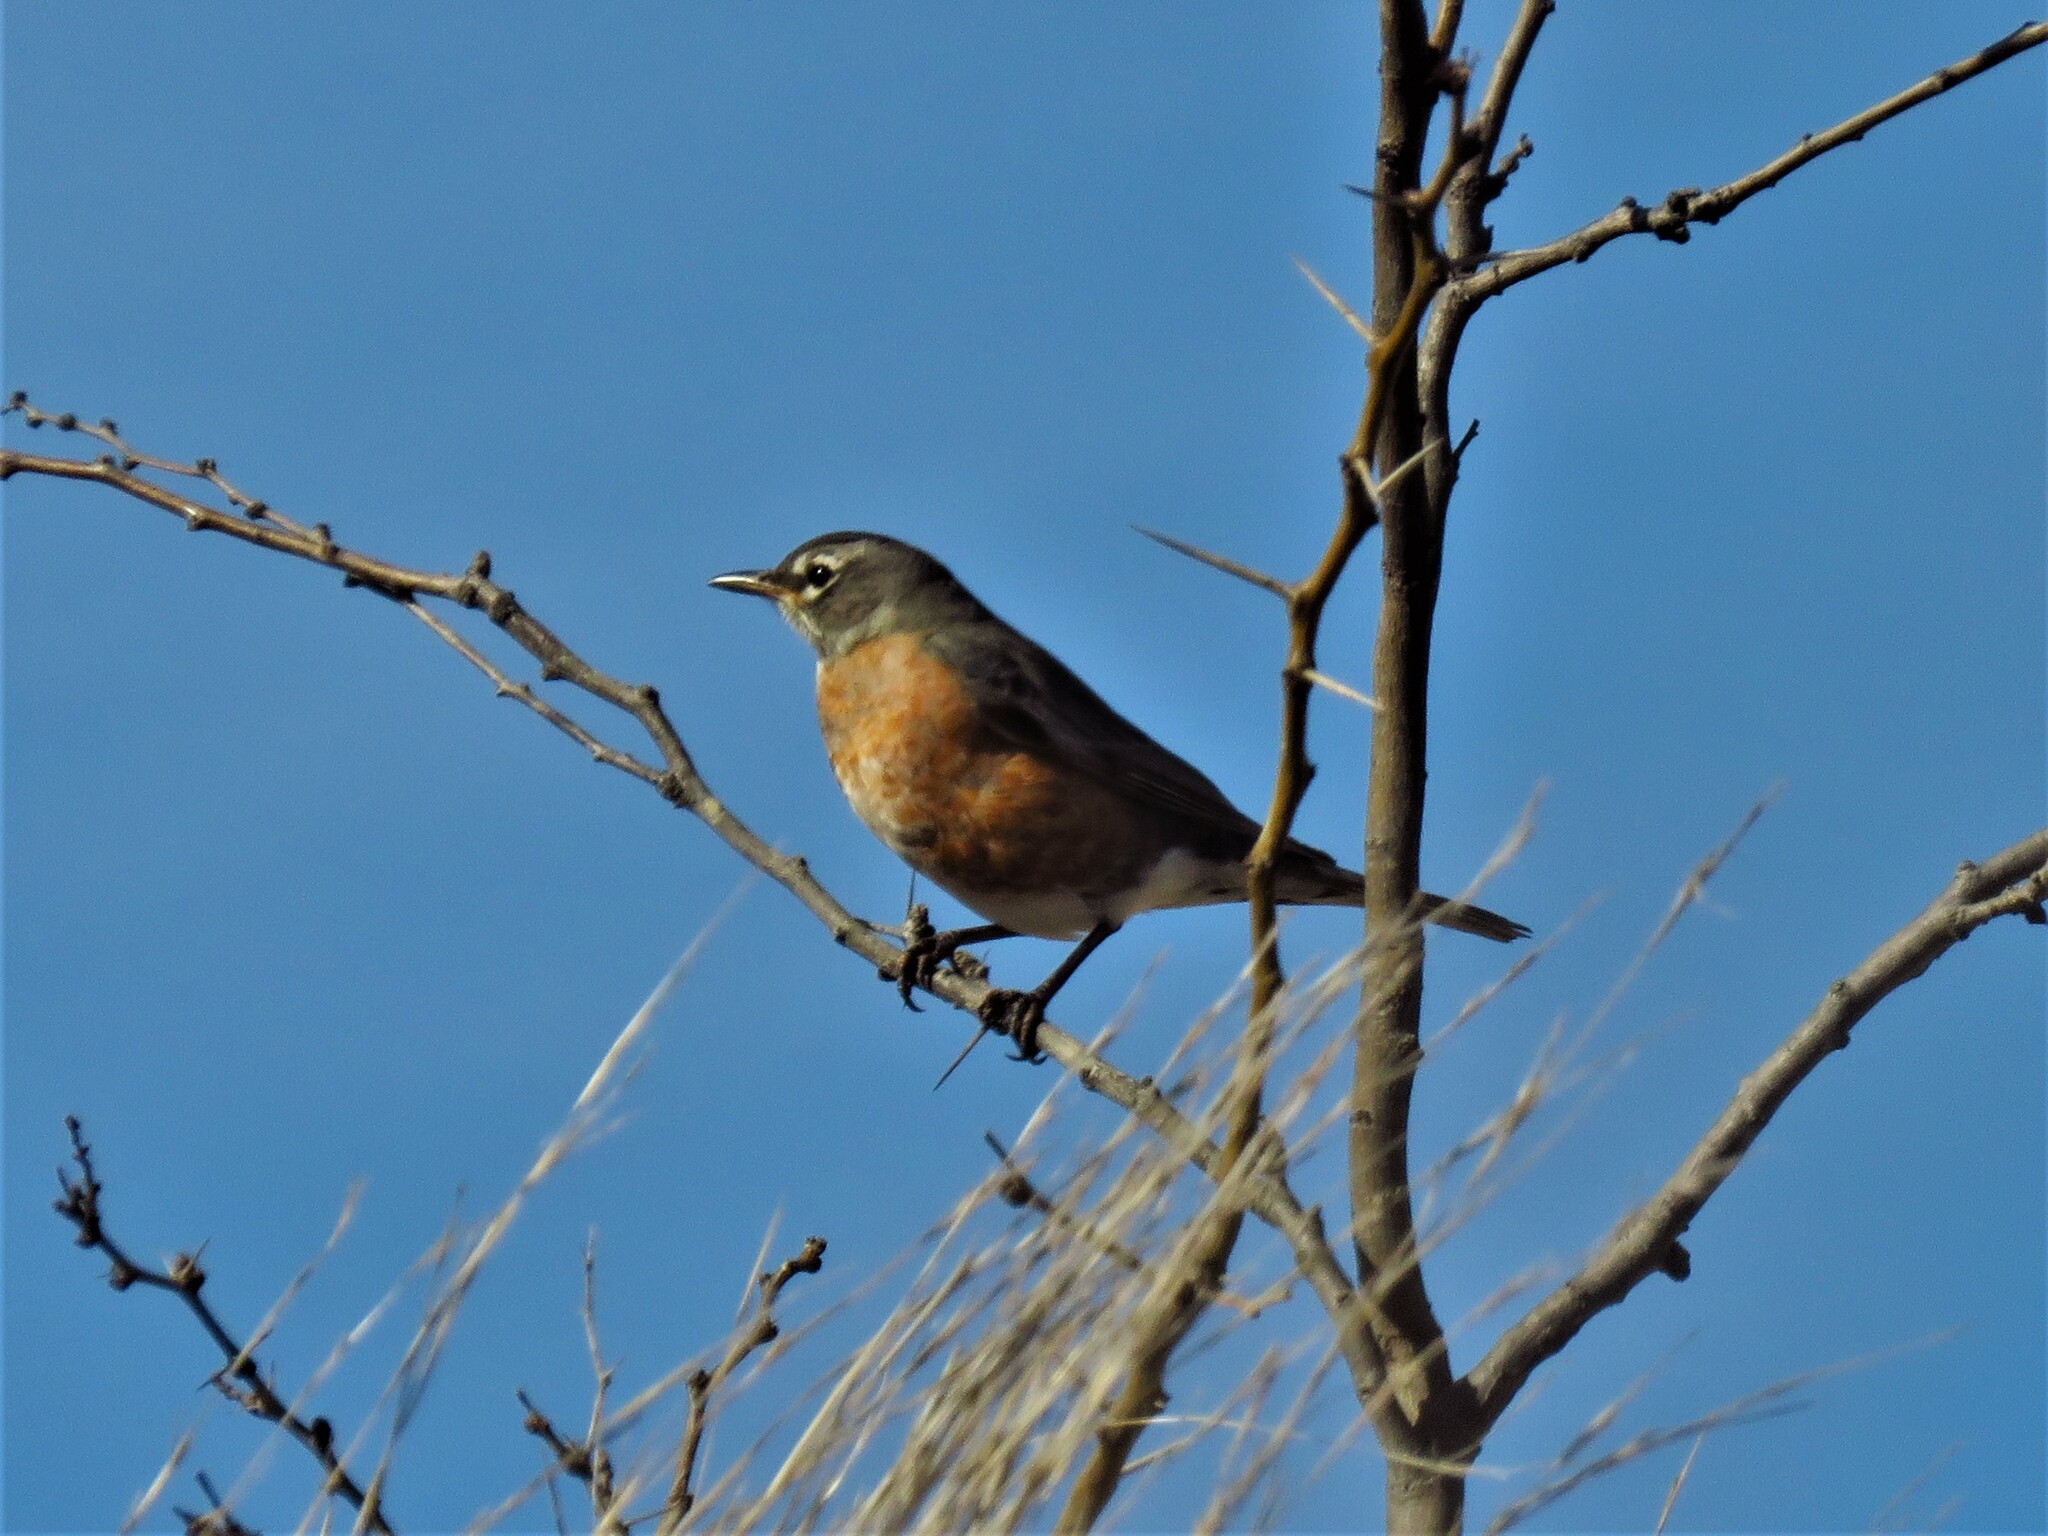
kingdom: Animalia
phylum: Chordata
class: Aves
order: Passeriformes
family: Turdidae
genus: Turdus
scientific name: Turdus migratorius
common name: American robin
